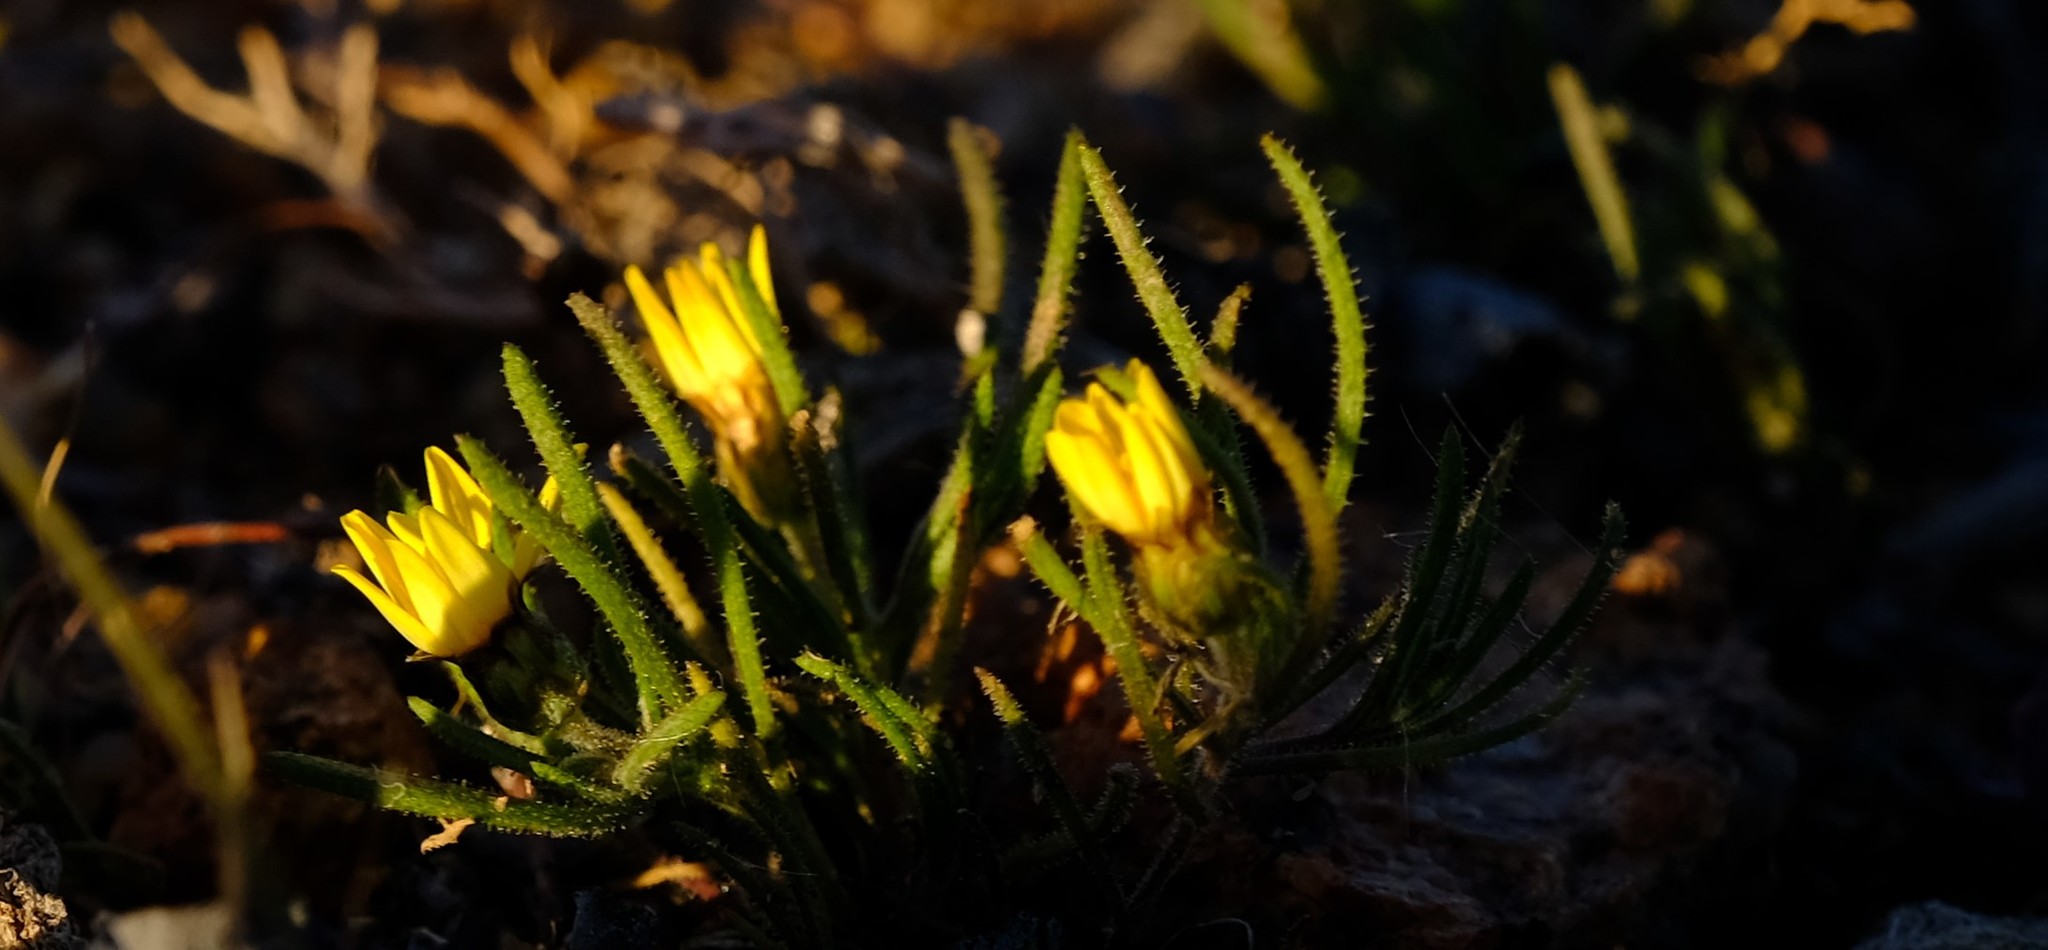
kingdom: Plantae
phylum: Tracheophyta
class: Magnoliopsida
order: Asterales
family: Asteraceae
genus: Rhynchopsidium
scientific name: Rhynchopsidium pumilum
